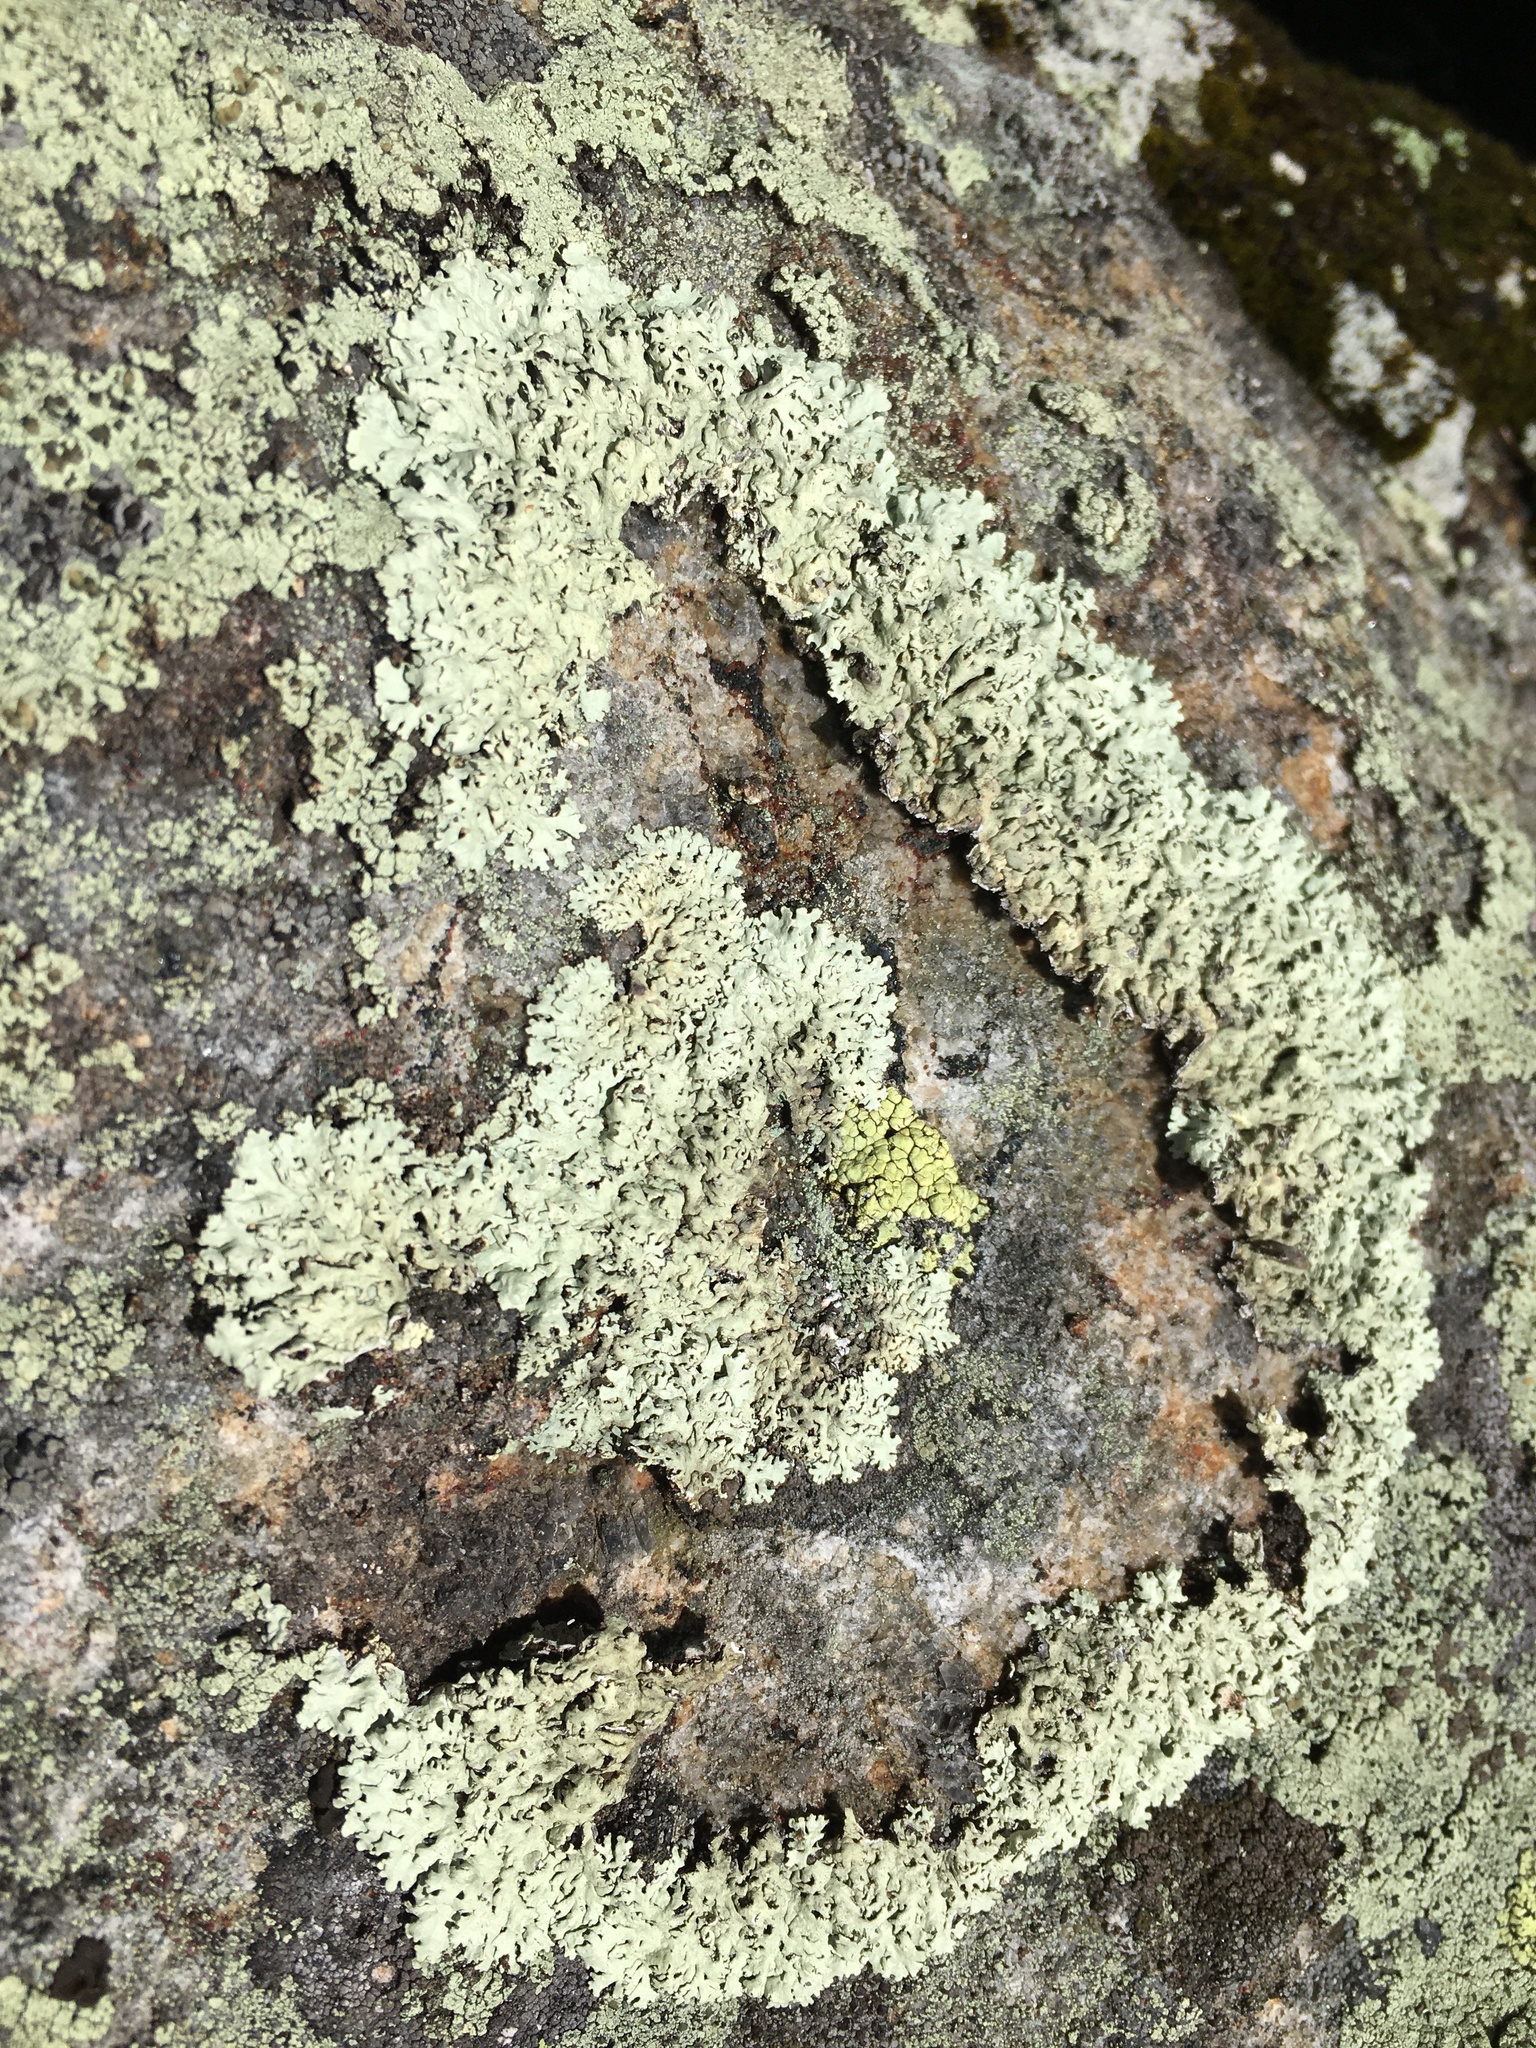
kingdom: Fungi
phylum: Ascomycota
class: Lecanoromycetes
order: Lecanorales
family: Parmeliaceae
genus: Arctoparmelia
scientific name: Arctoparmelia centrifuga
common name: Concentric ring lichen
